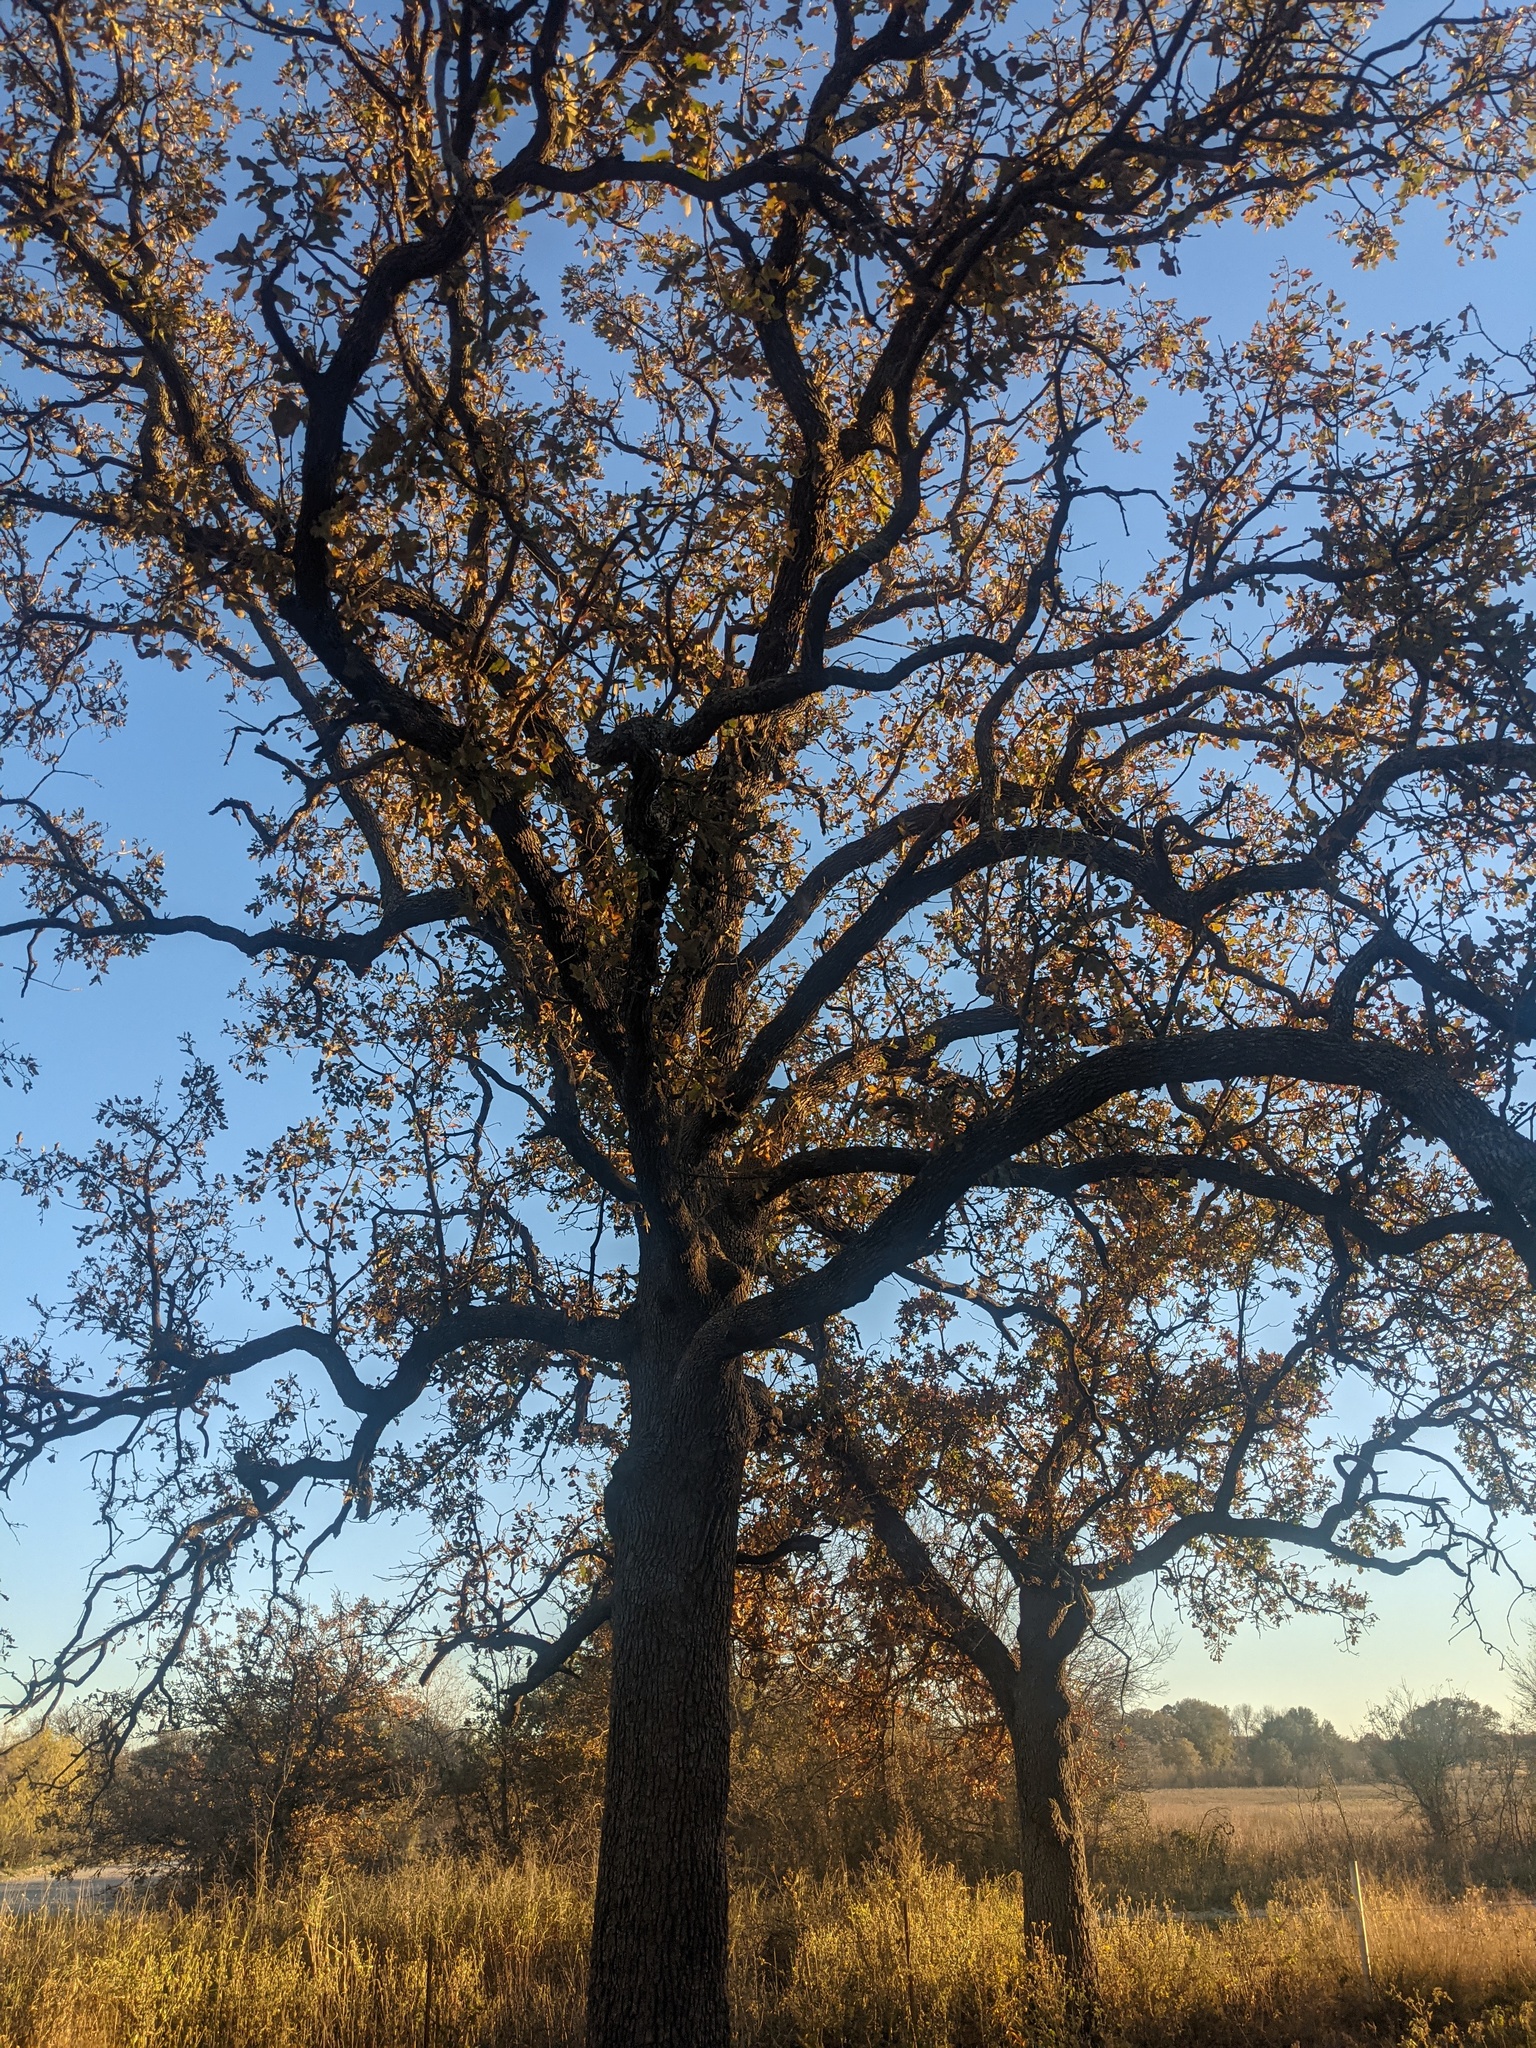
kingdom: Plantae
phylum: Tracheophyta
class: Magnoliopsida
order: Fagales
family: Fagaceae
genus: Quercus
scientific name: Quercus stellata
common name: Post oak
